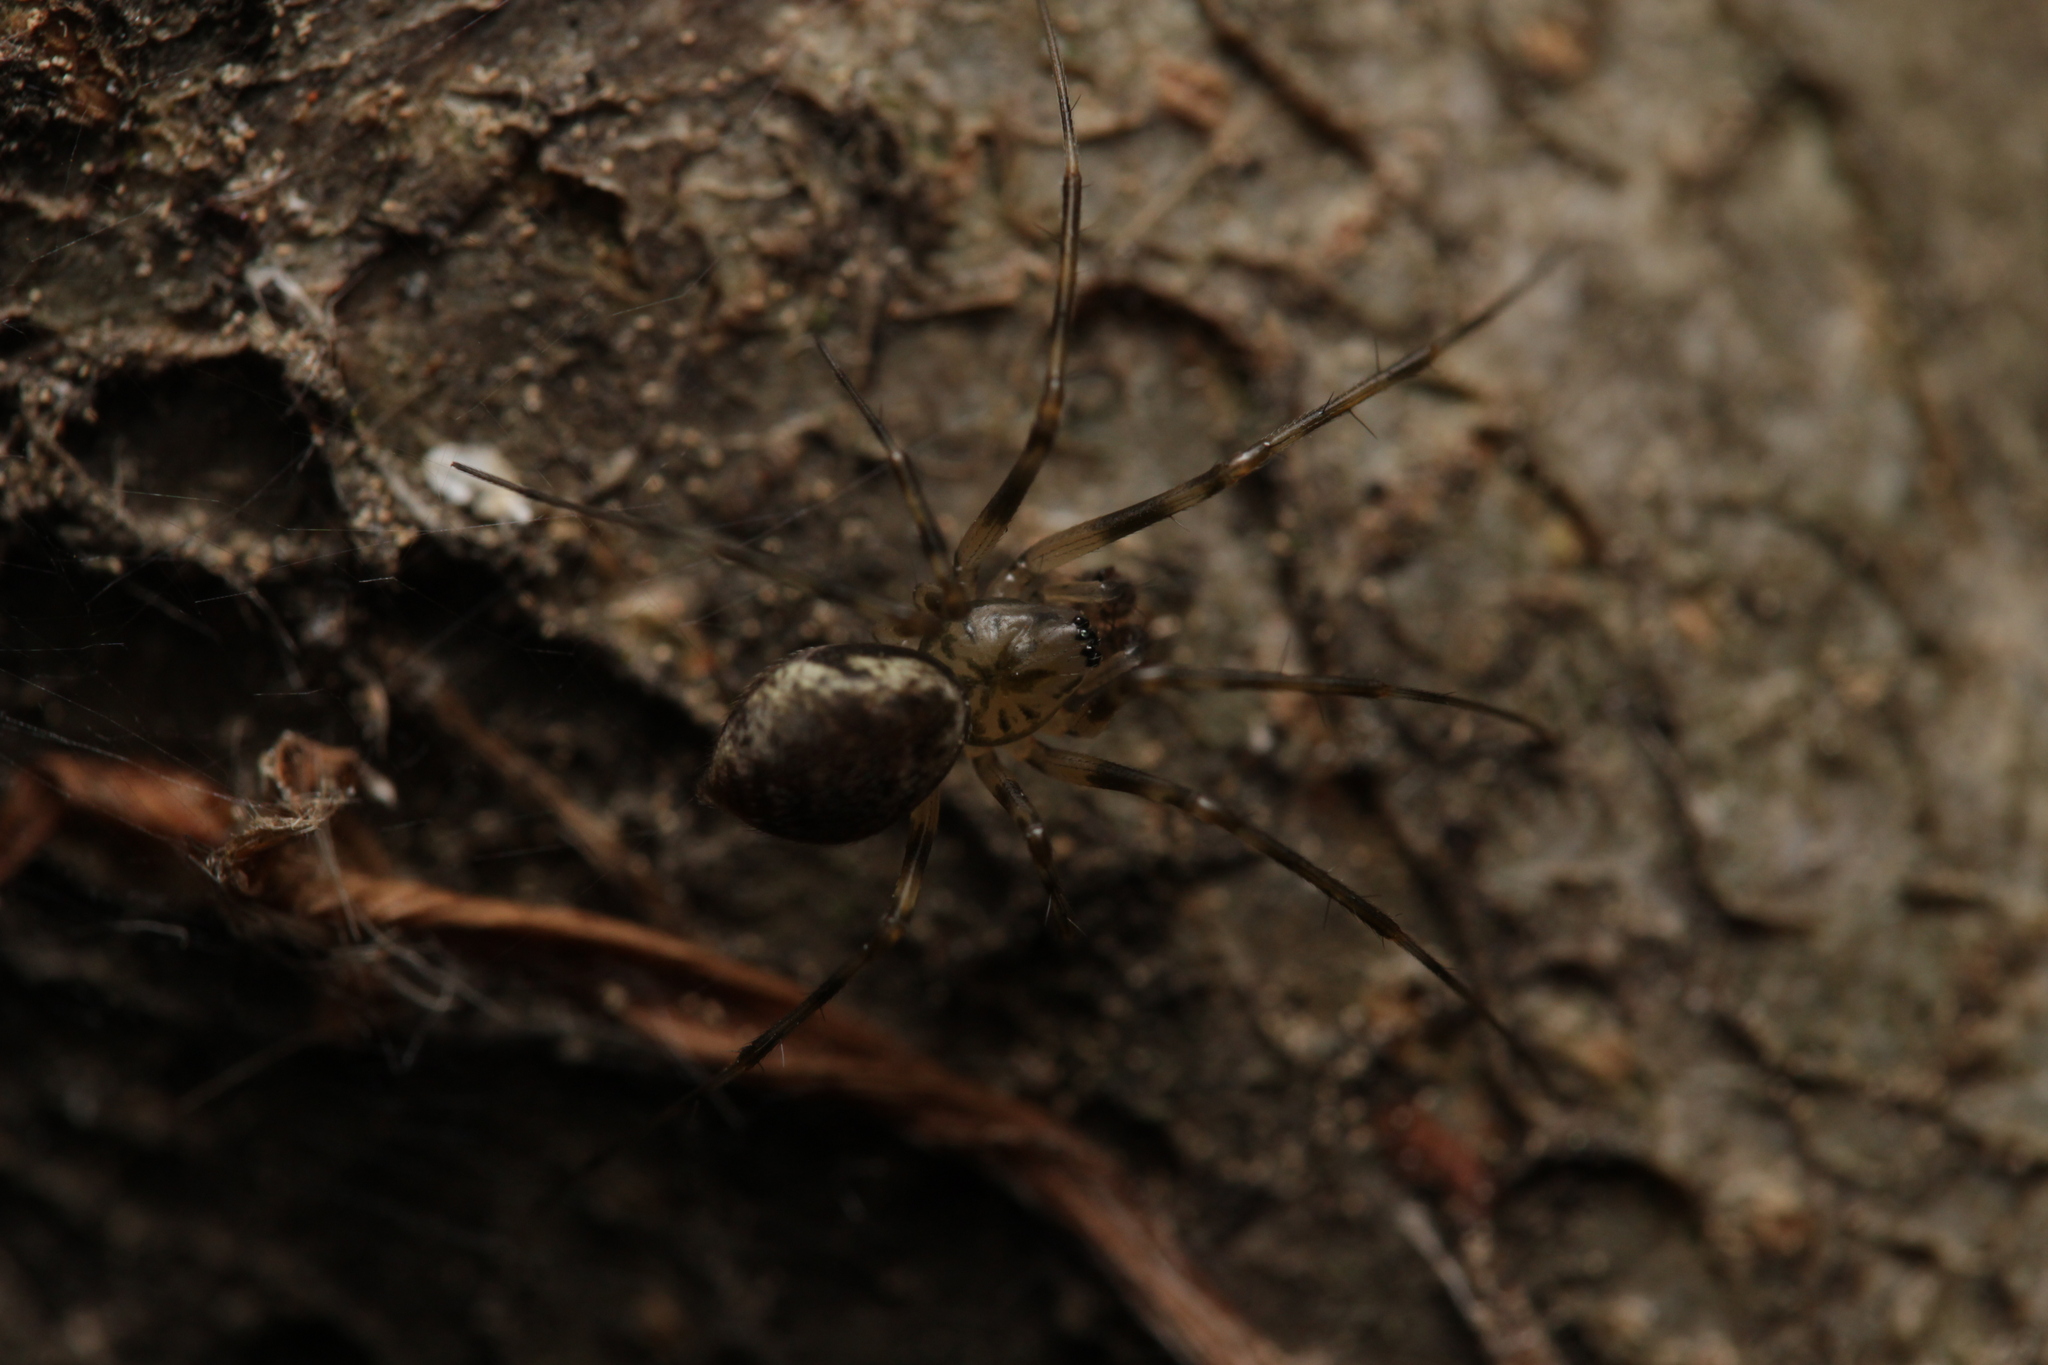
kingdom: Animalia
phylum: Arthropoda
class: Arachnida
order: Araneae
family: Linyphiidae
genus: Drapetisca
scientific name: Drapetisca socialis
